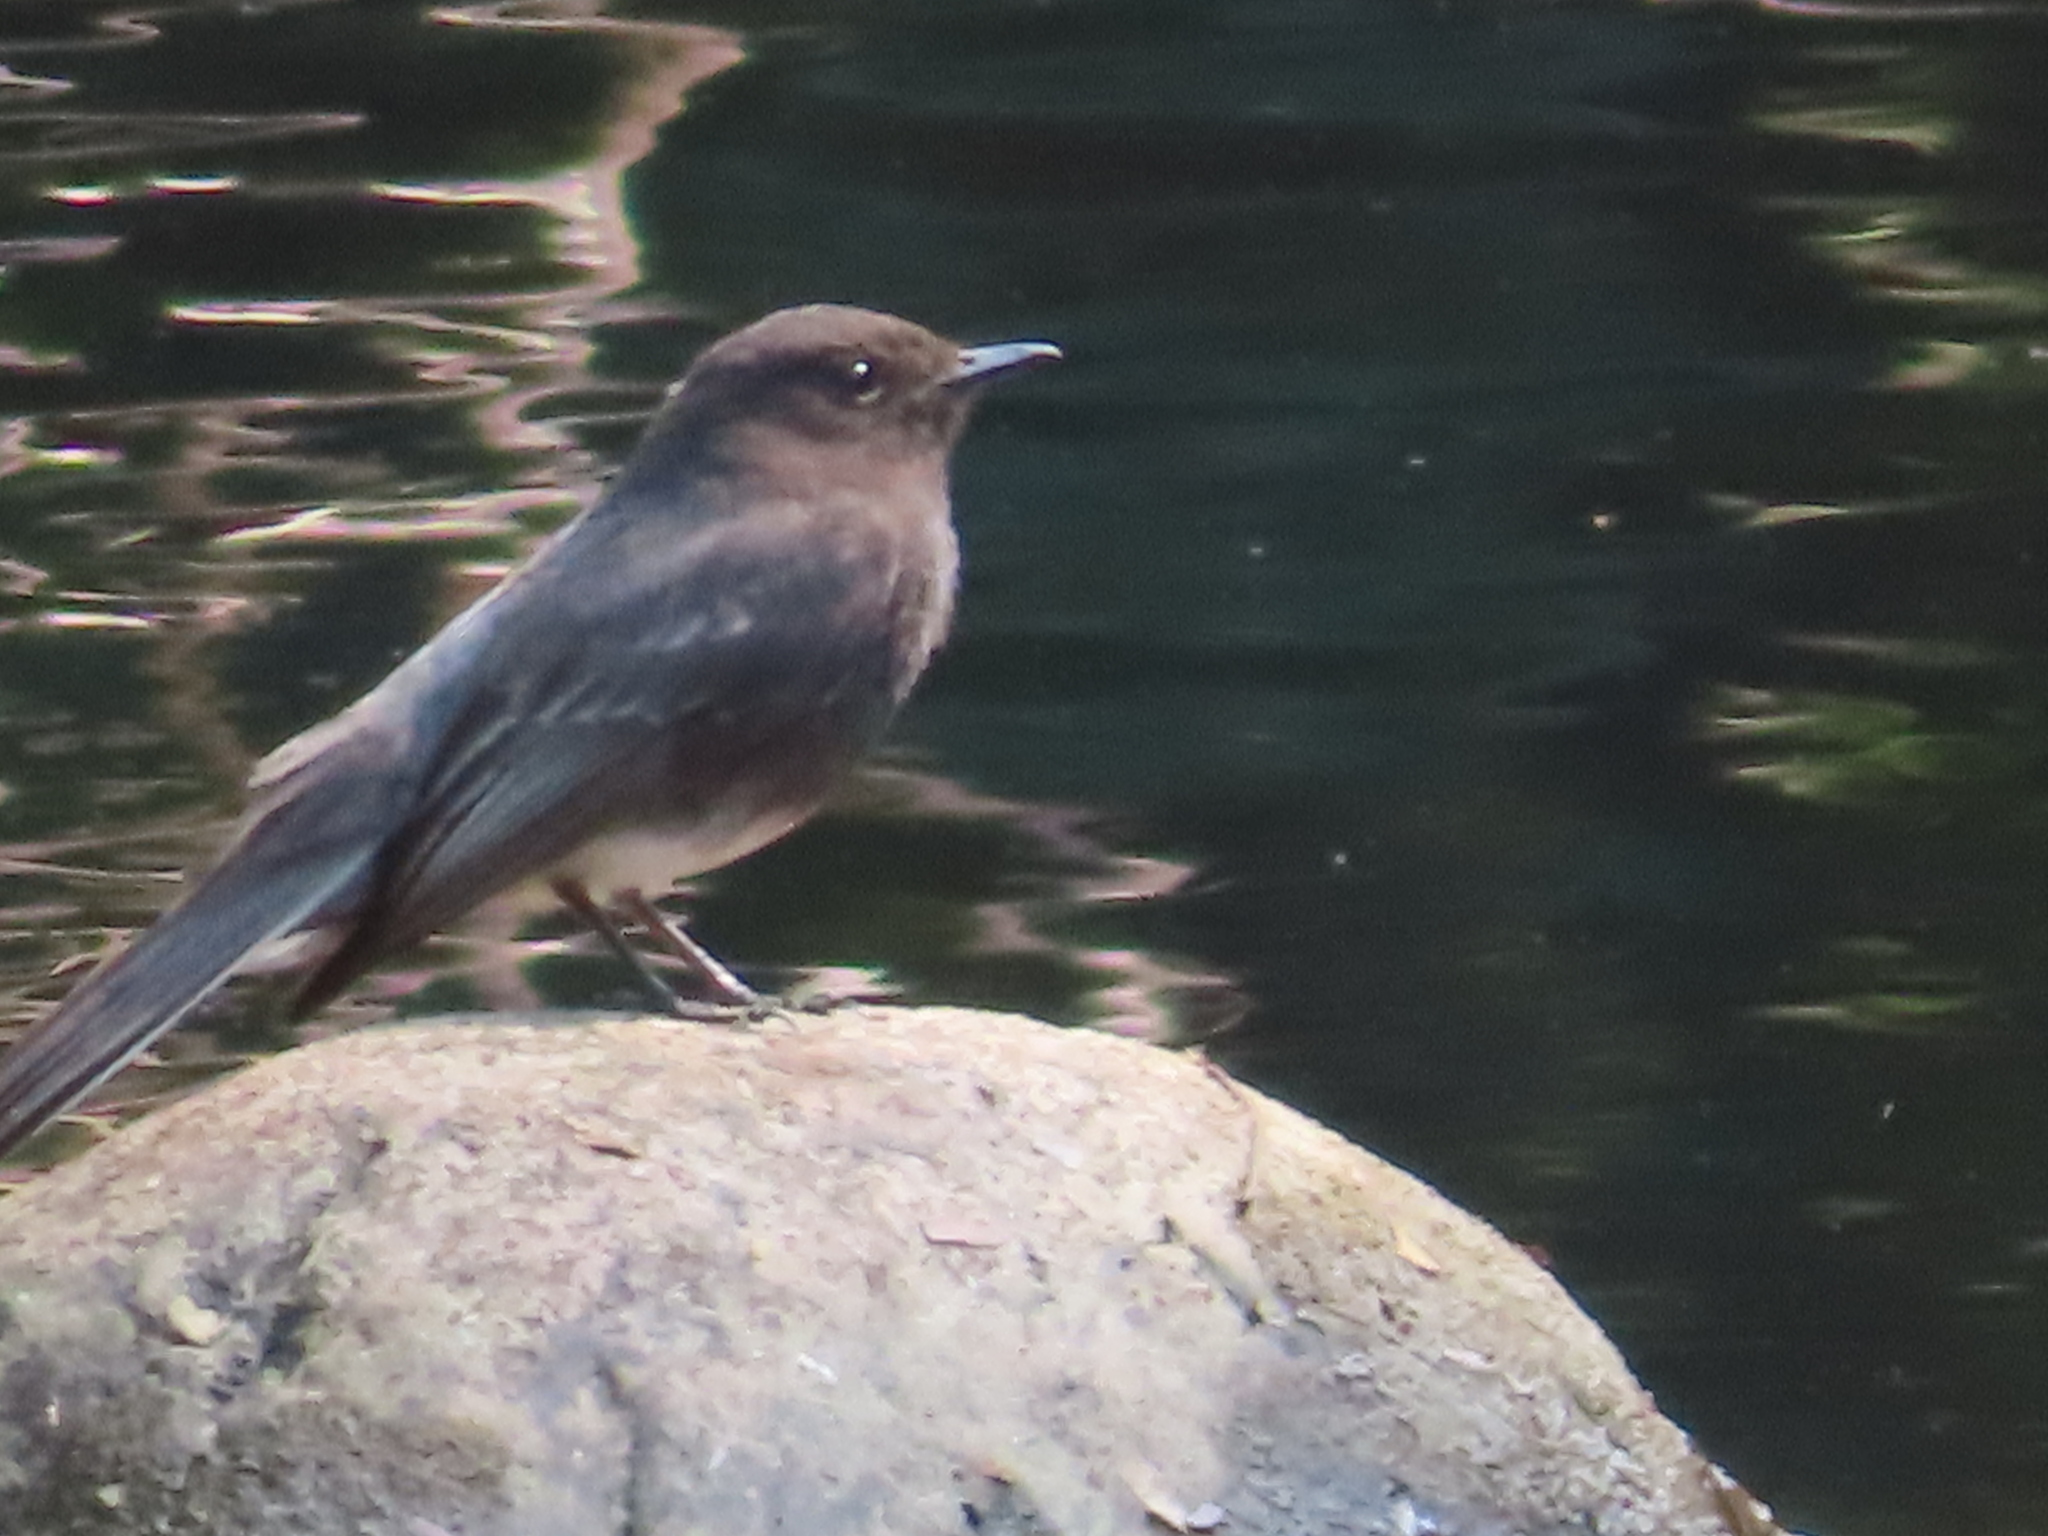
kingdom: Animalia
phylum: Chordata
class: Aves
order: Passeriformes
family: Tyrannidae
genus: Sayornis
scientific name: Sayornis nigricans
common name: Black phoebe
